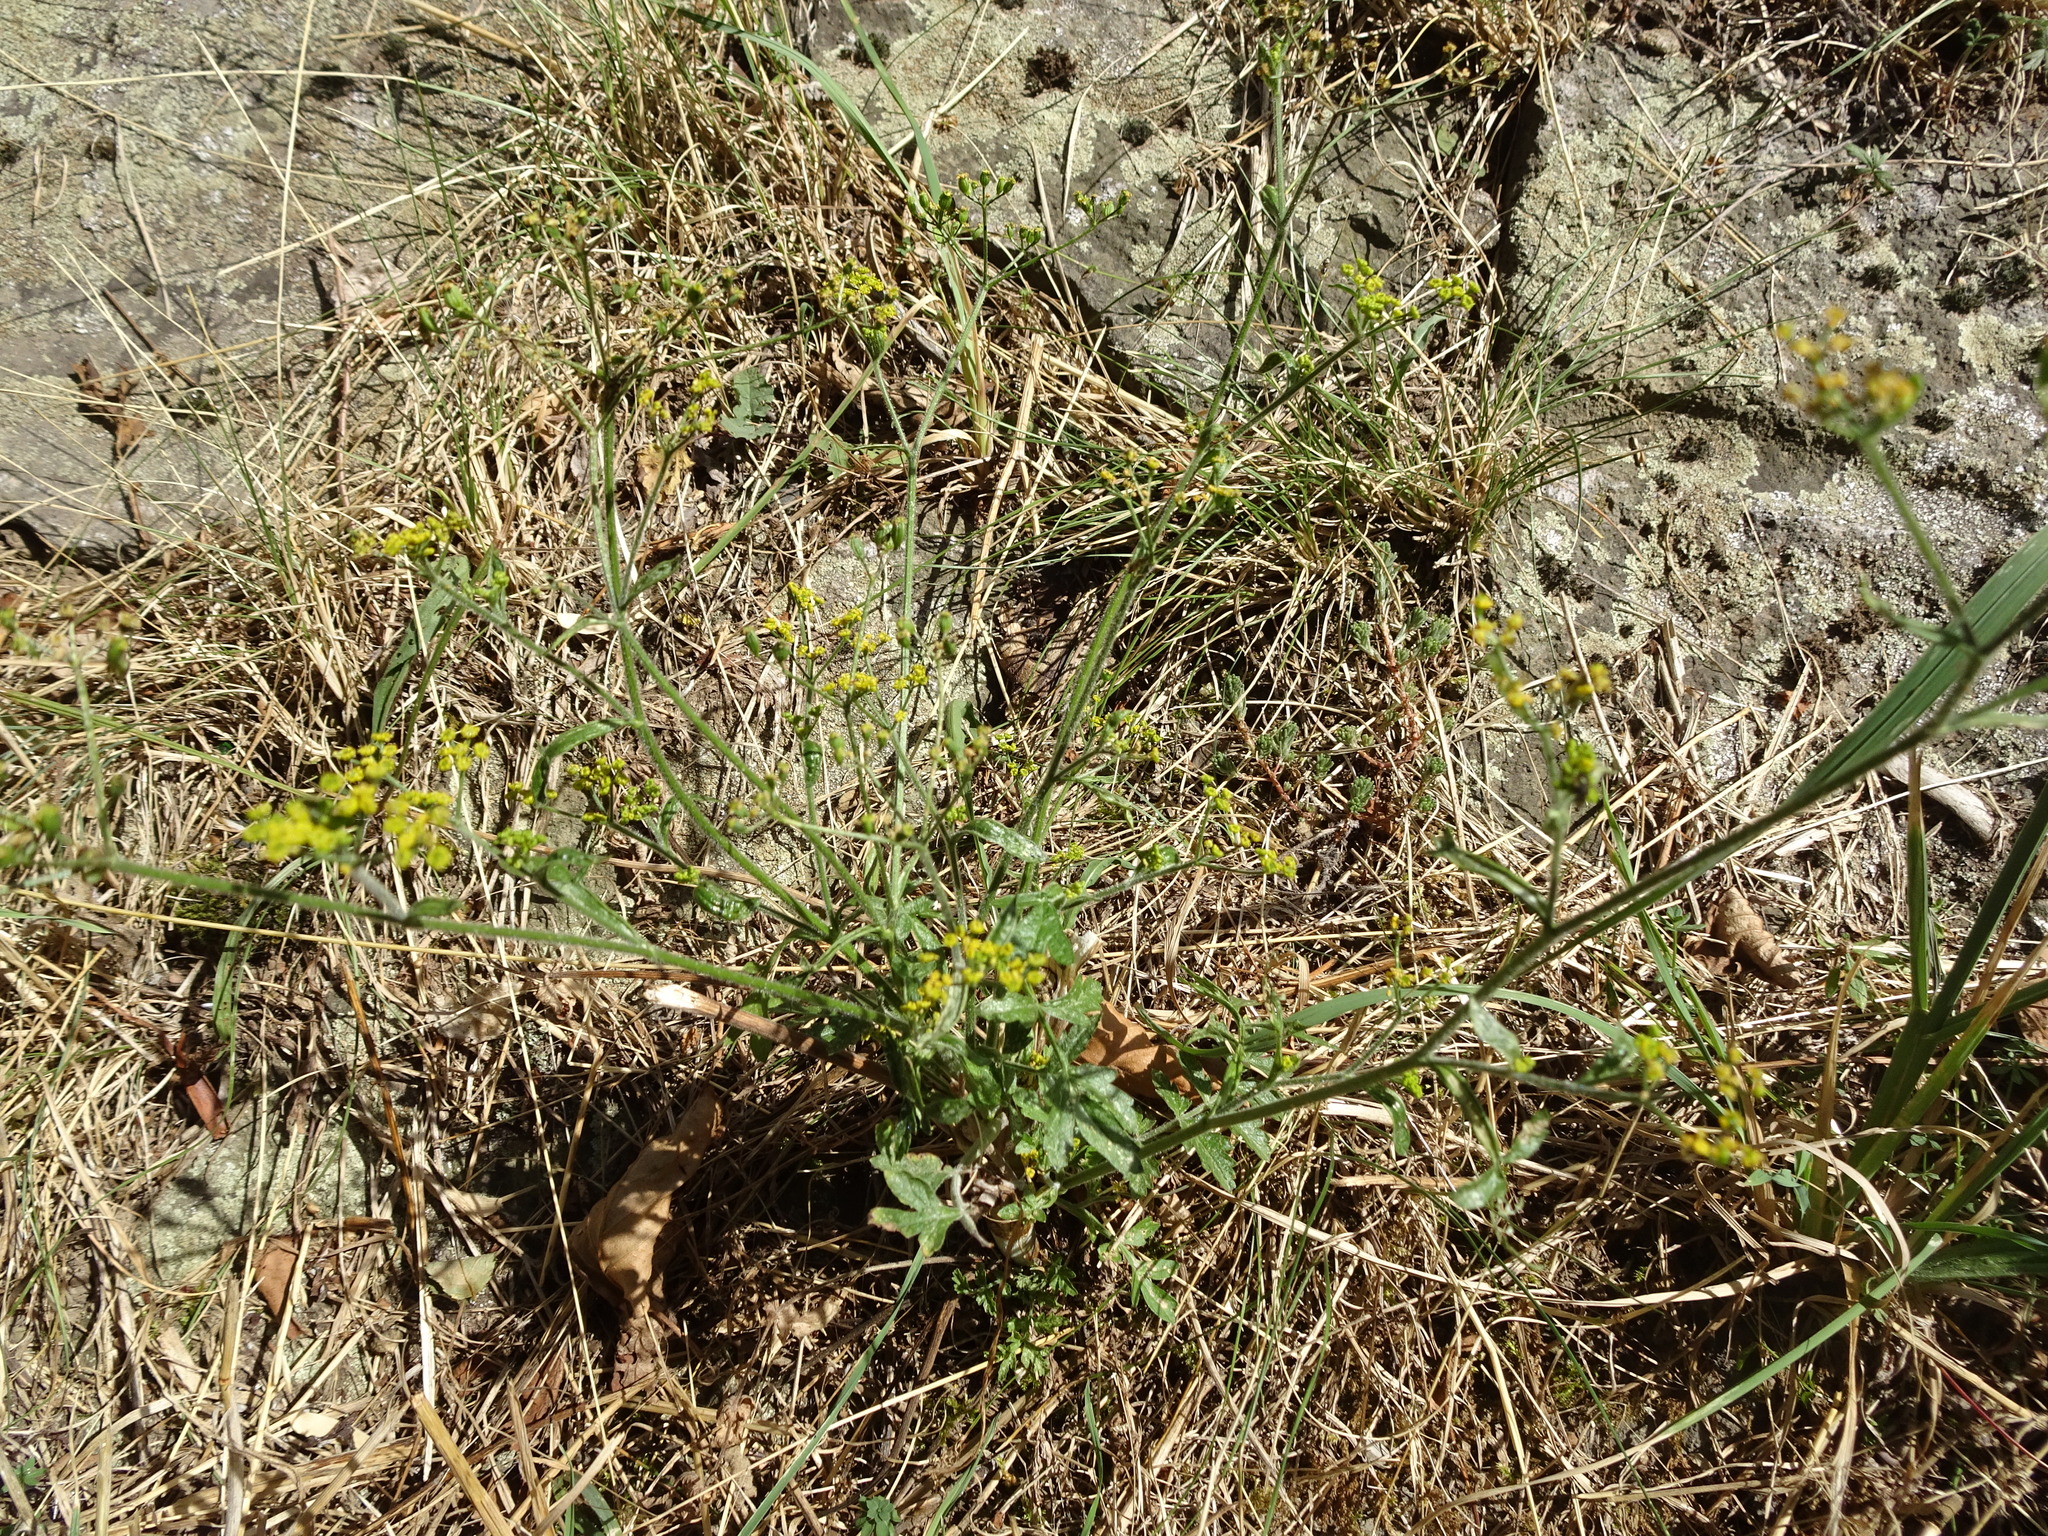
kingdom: Plantae
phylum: Tracheophyta
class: Magnoliopsida
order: Apiales
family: Apiaceae
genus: Pastinaca
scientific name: Pastinaca sativa
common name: Wild parsnip
